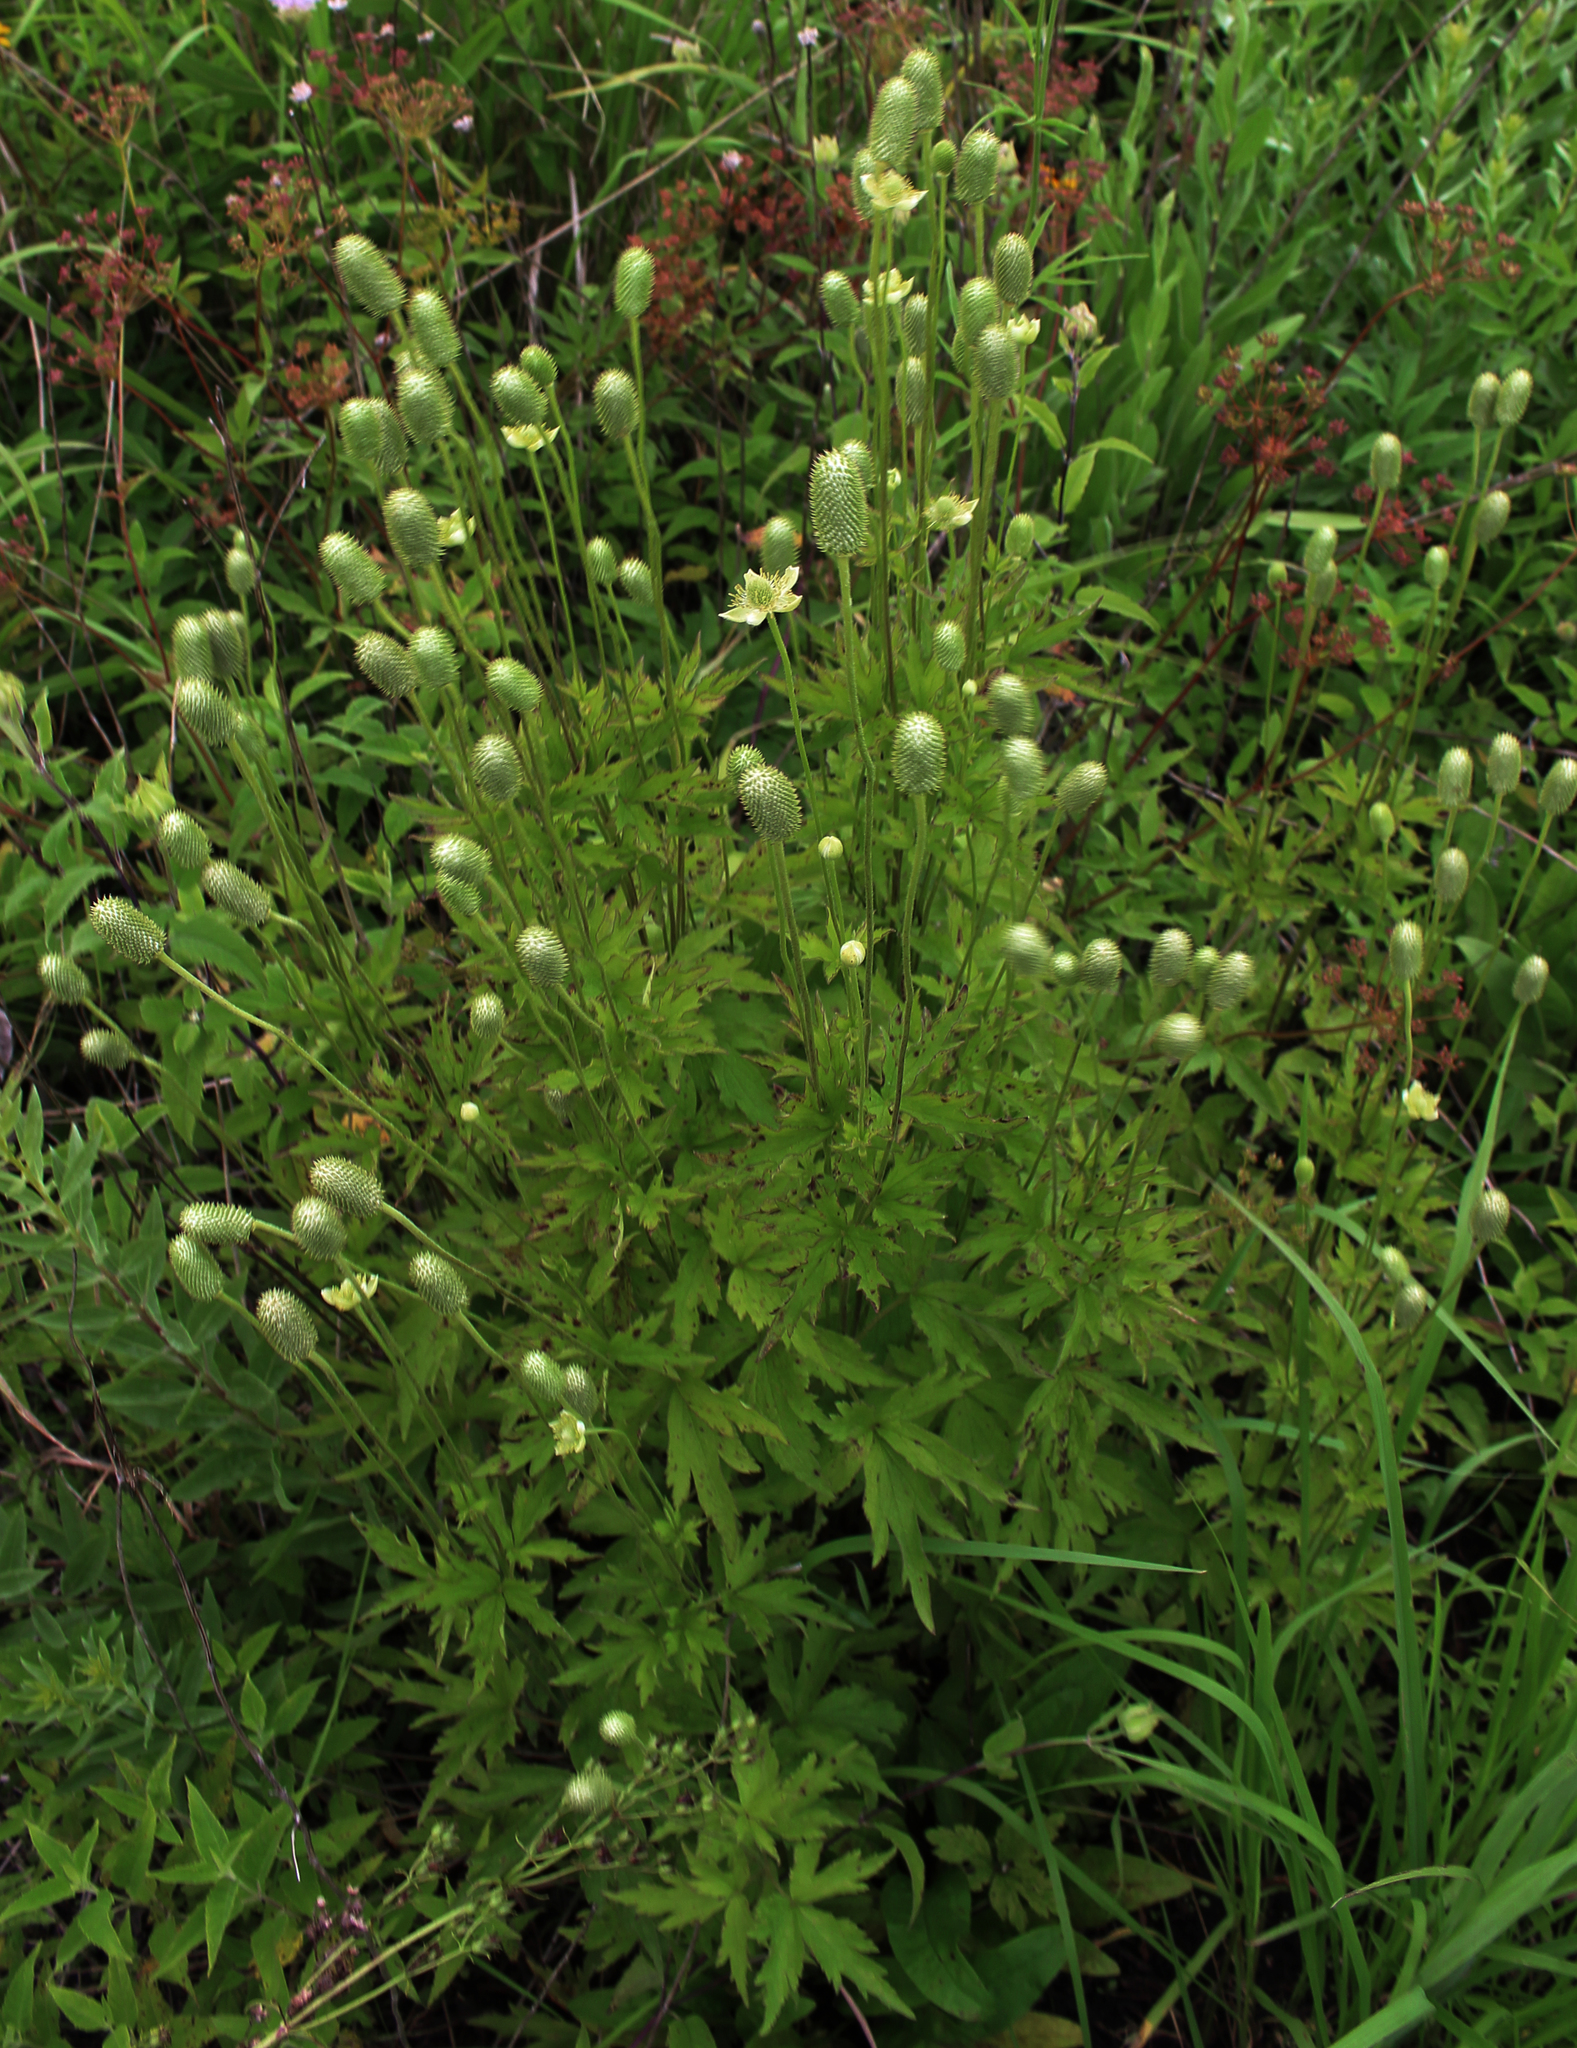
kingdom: Plantae
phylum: Tracheophyta
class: Magnoliopsida
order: Ranunculales
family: Ranunculaceae
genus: Anemone
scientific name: Anemone cylindrica
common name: Candle anemone
